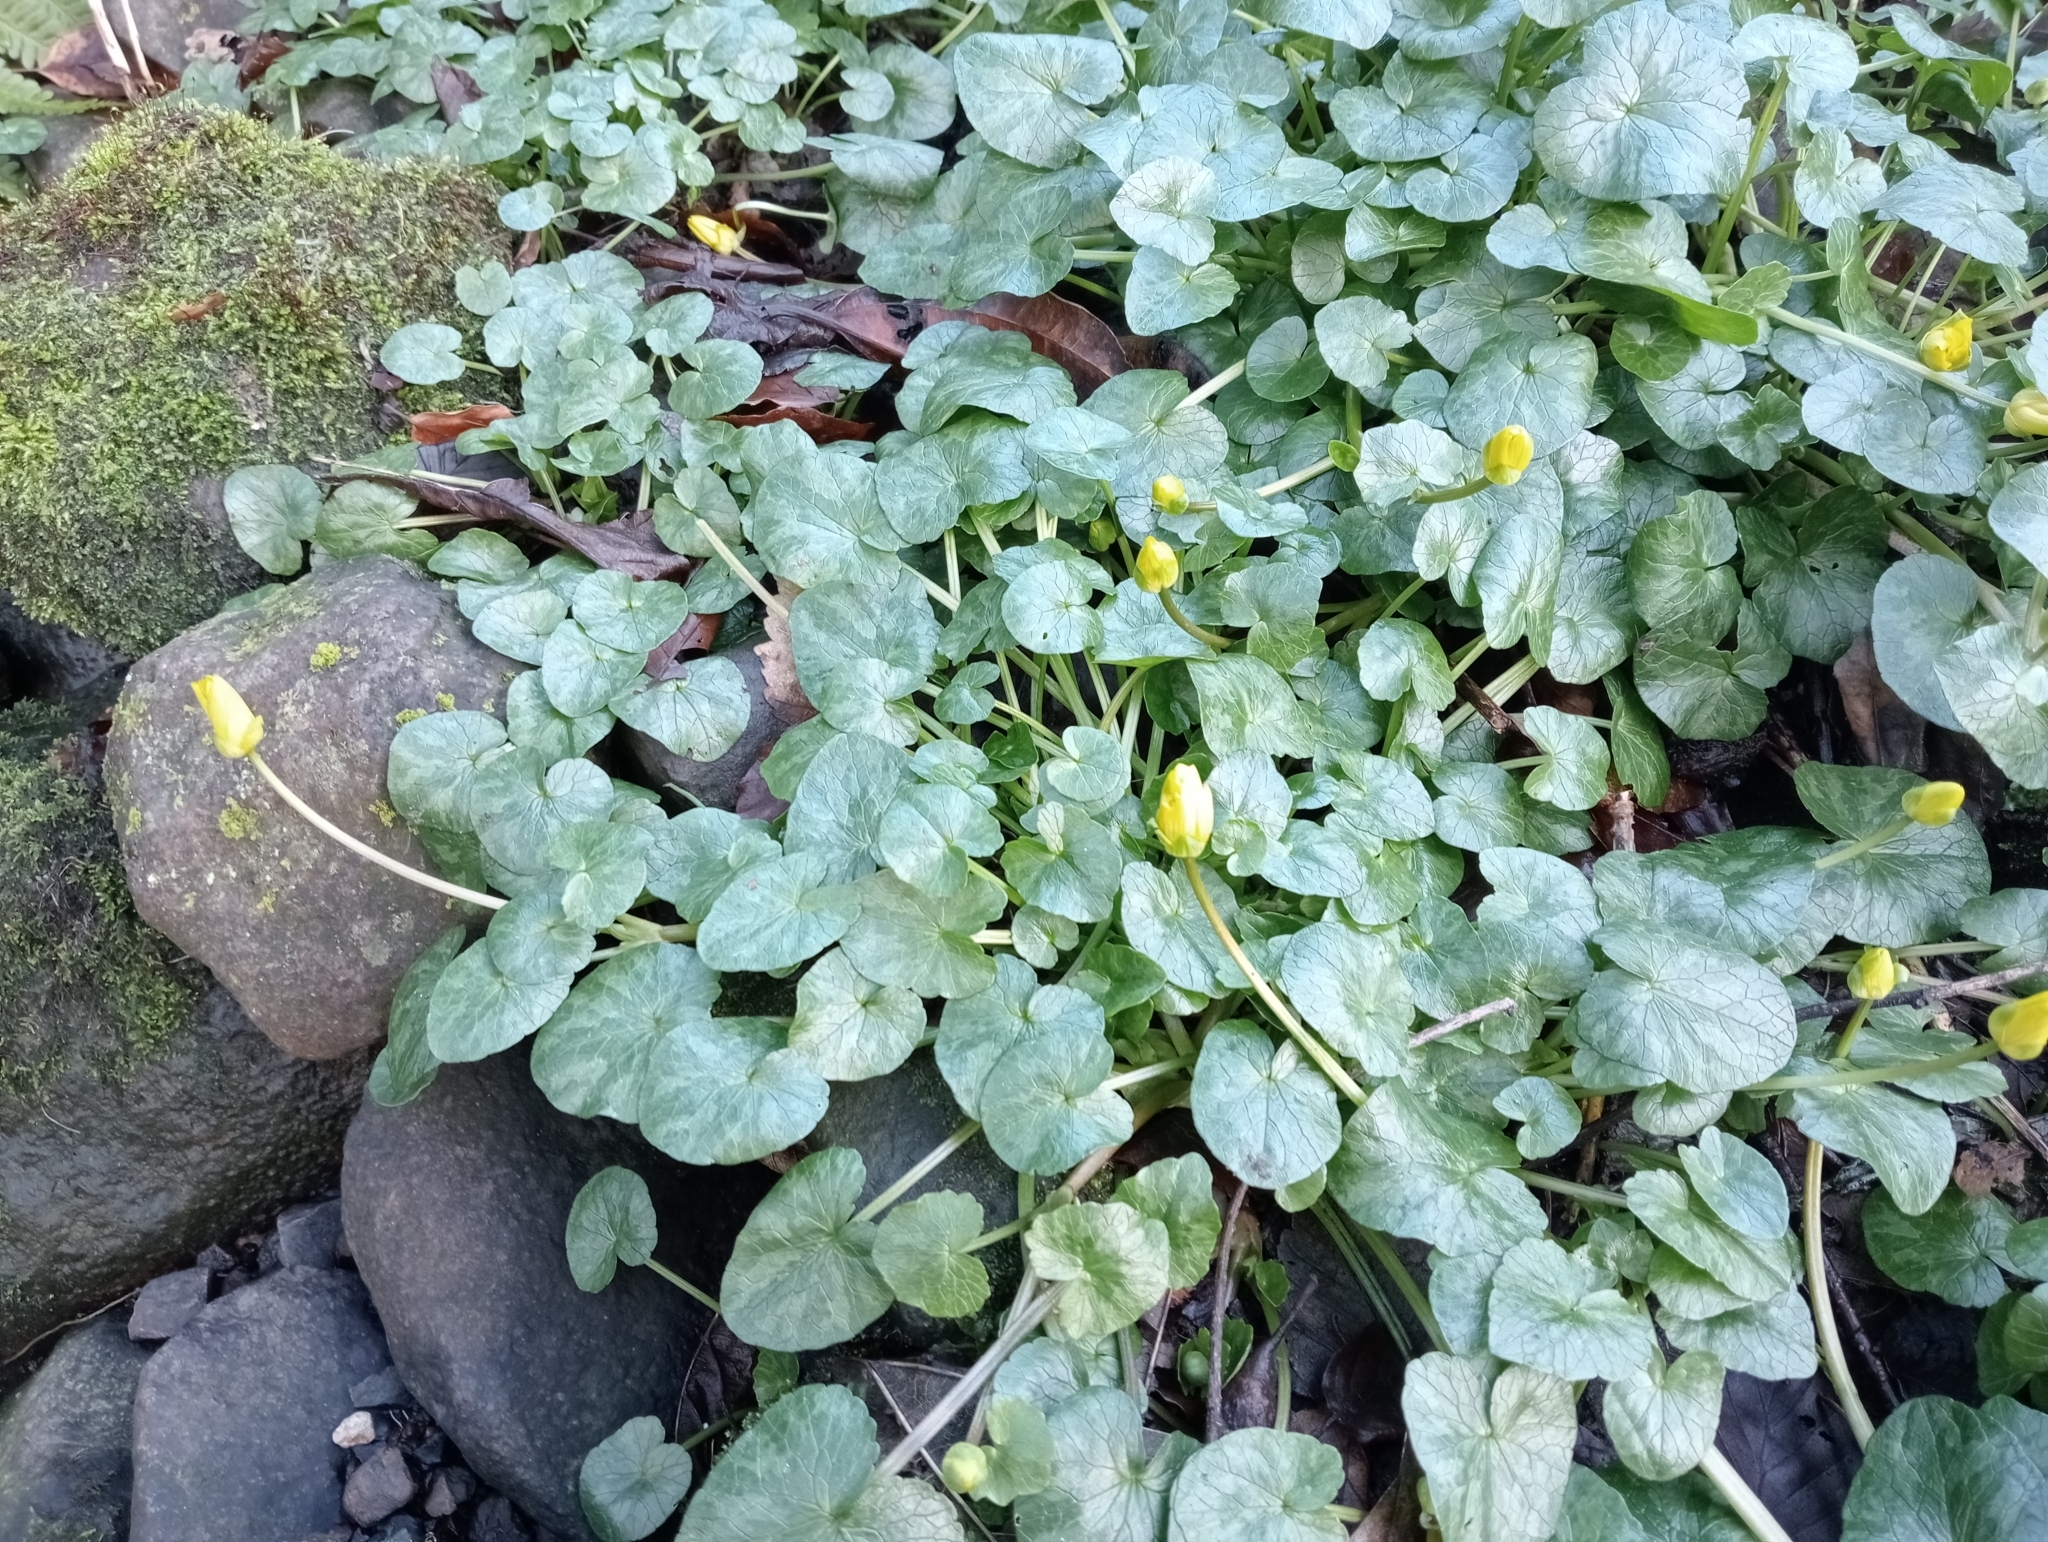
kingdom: Plantae
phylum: Tracheophyta
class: Magnoliopsida
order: Ranunculales
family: Ranunculaceae
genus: Ficaria
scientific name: Ficaria verna
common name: Lesser celandine
